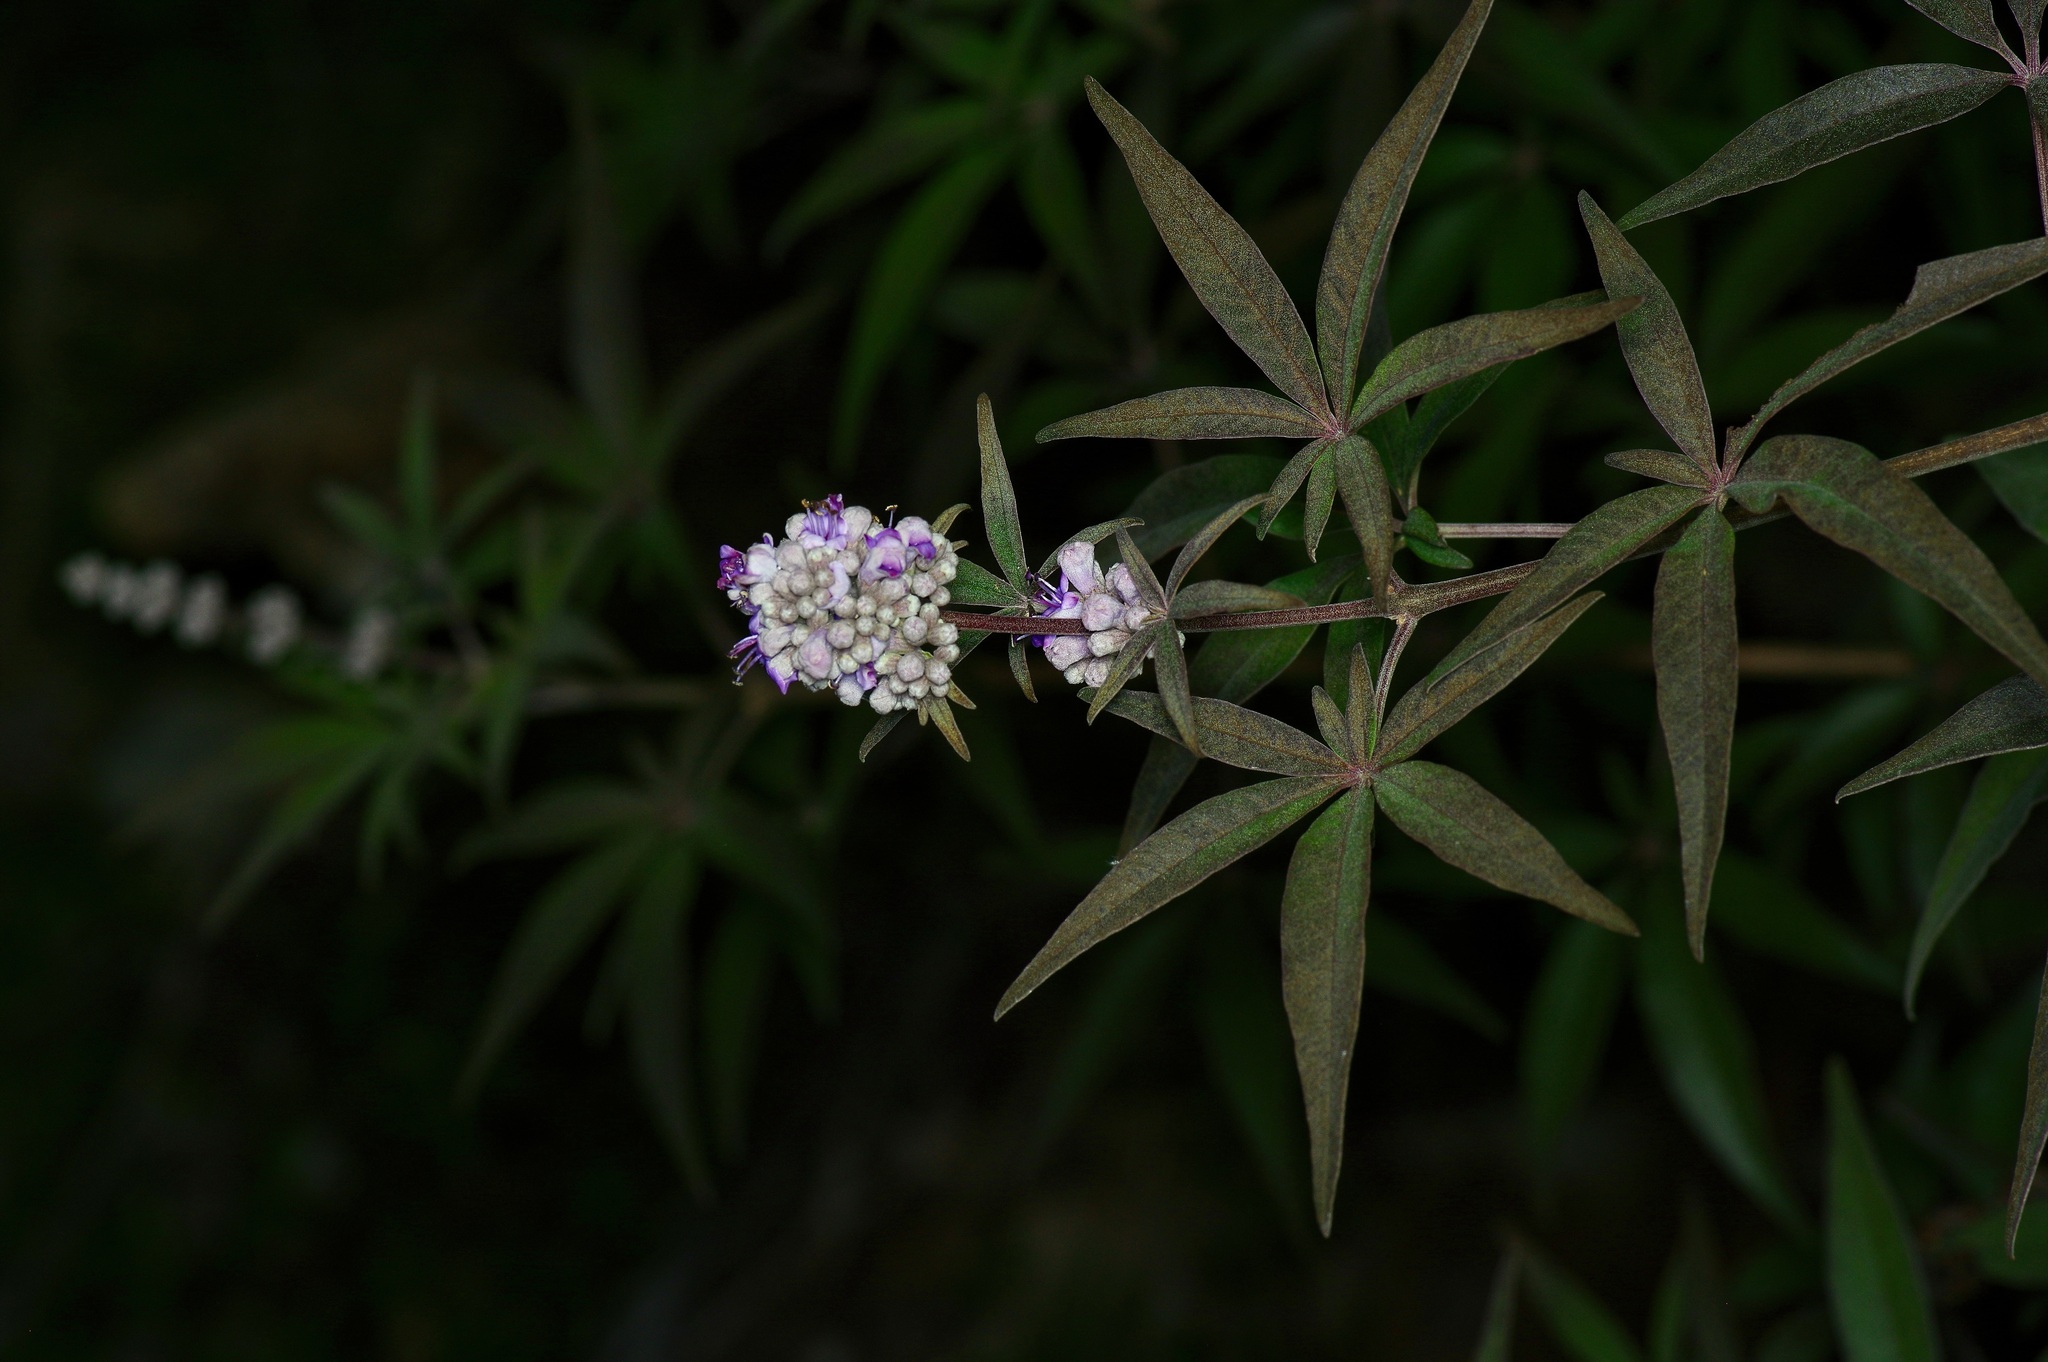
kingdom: Plantae
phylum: Tracheophyta
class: Magnoliopsida
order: Lamiales
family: Lamiaceae
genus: Vitex
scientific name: Vitex agnus-castus
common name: Chasteberry
